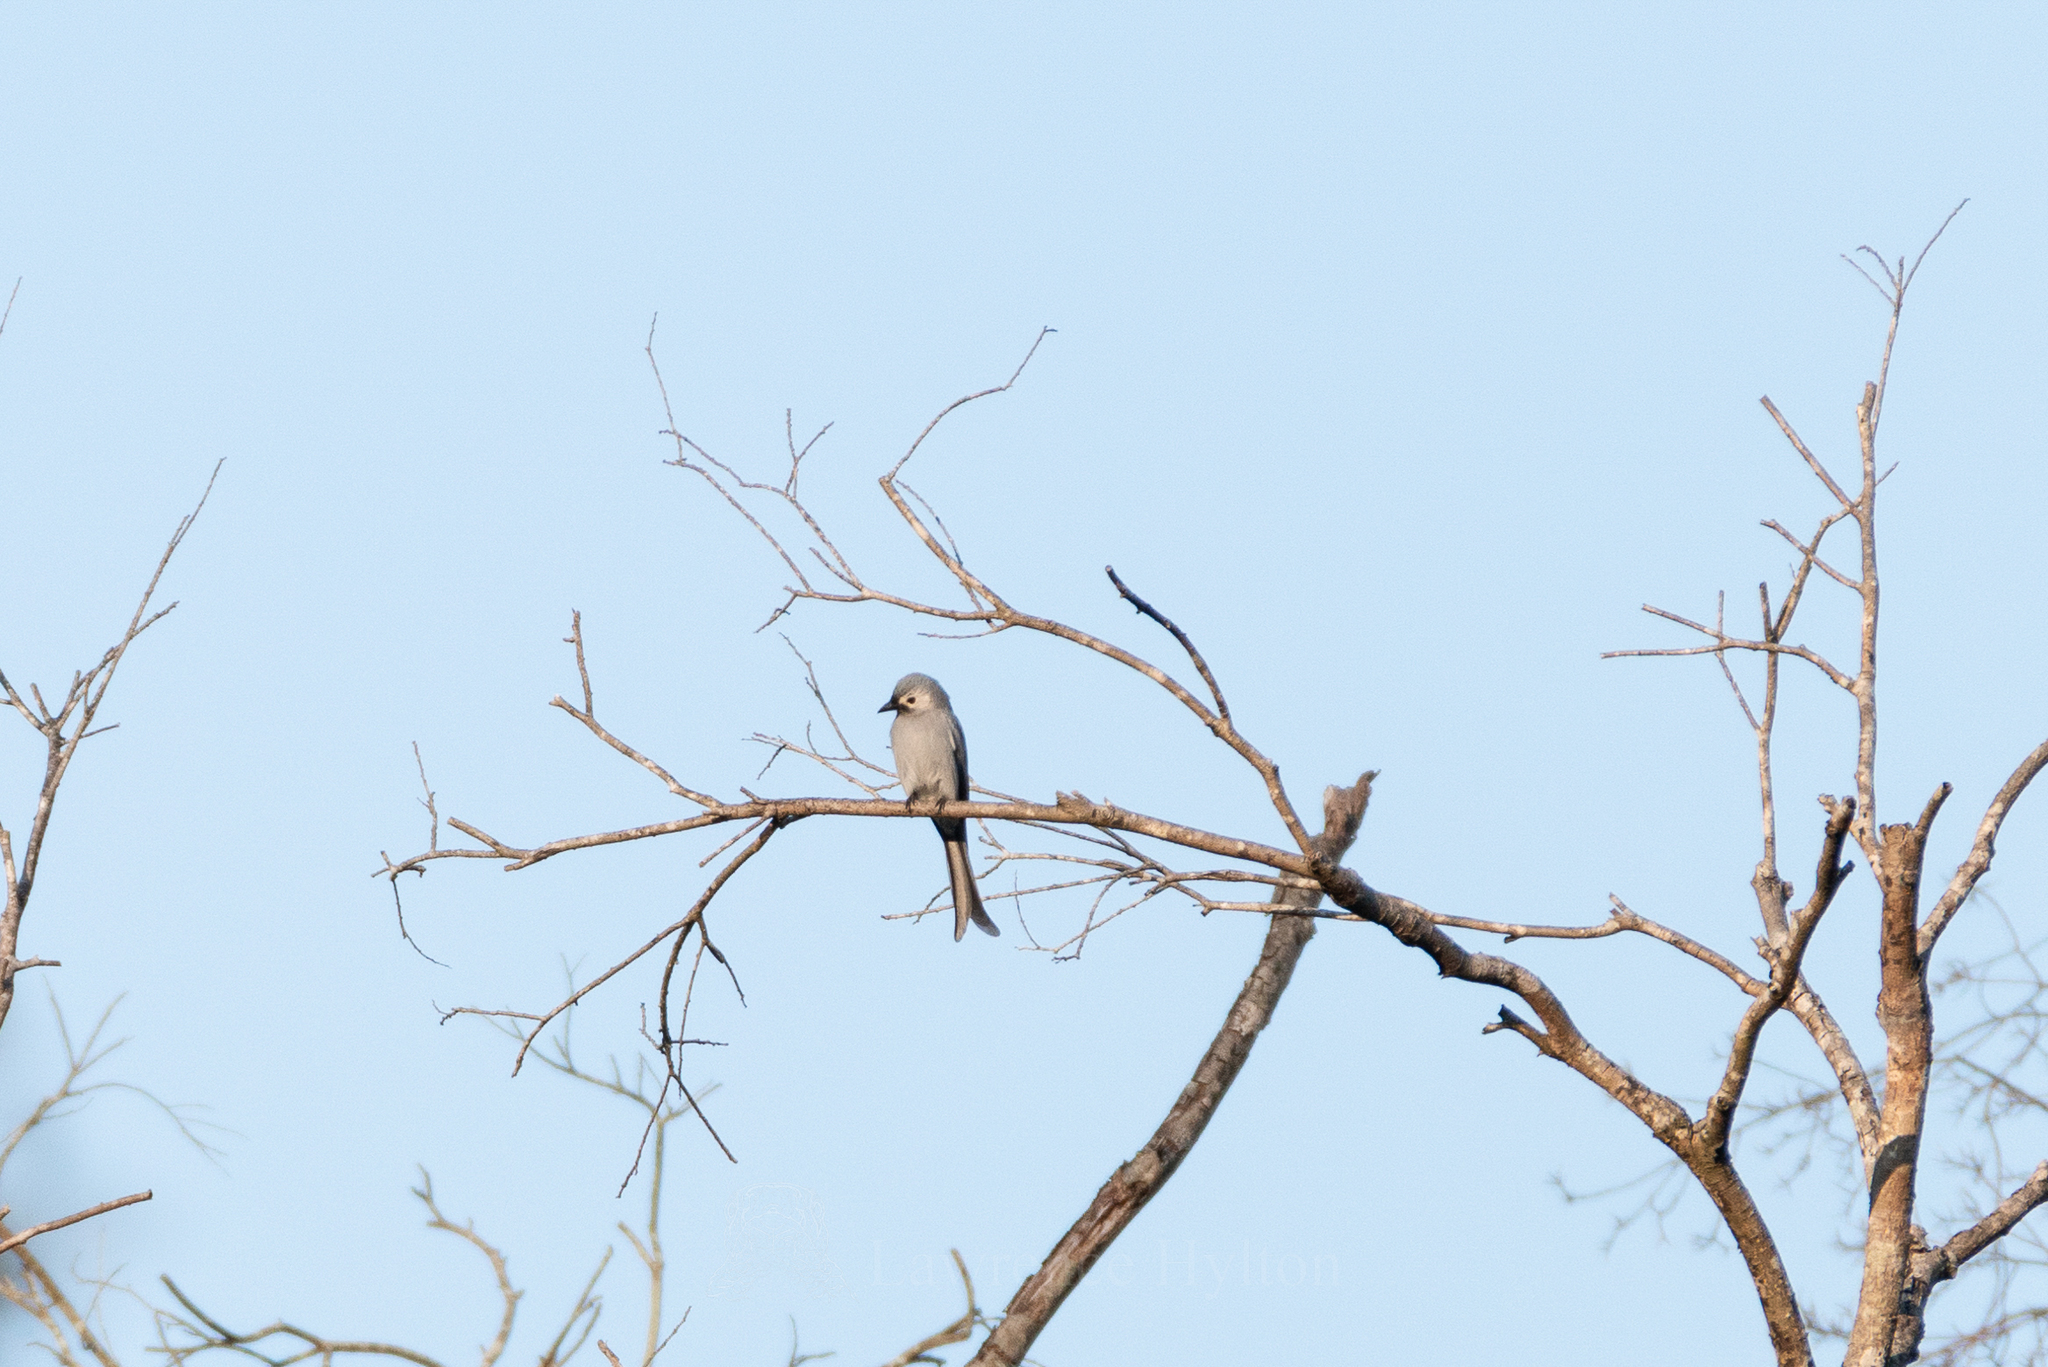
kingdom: Animalia
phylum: Chordata
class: Aves
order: Passeriformes
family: Dicruridae
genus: Dicrurus
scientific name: Dicrurus leucophaeus
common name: Ashy drongo
